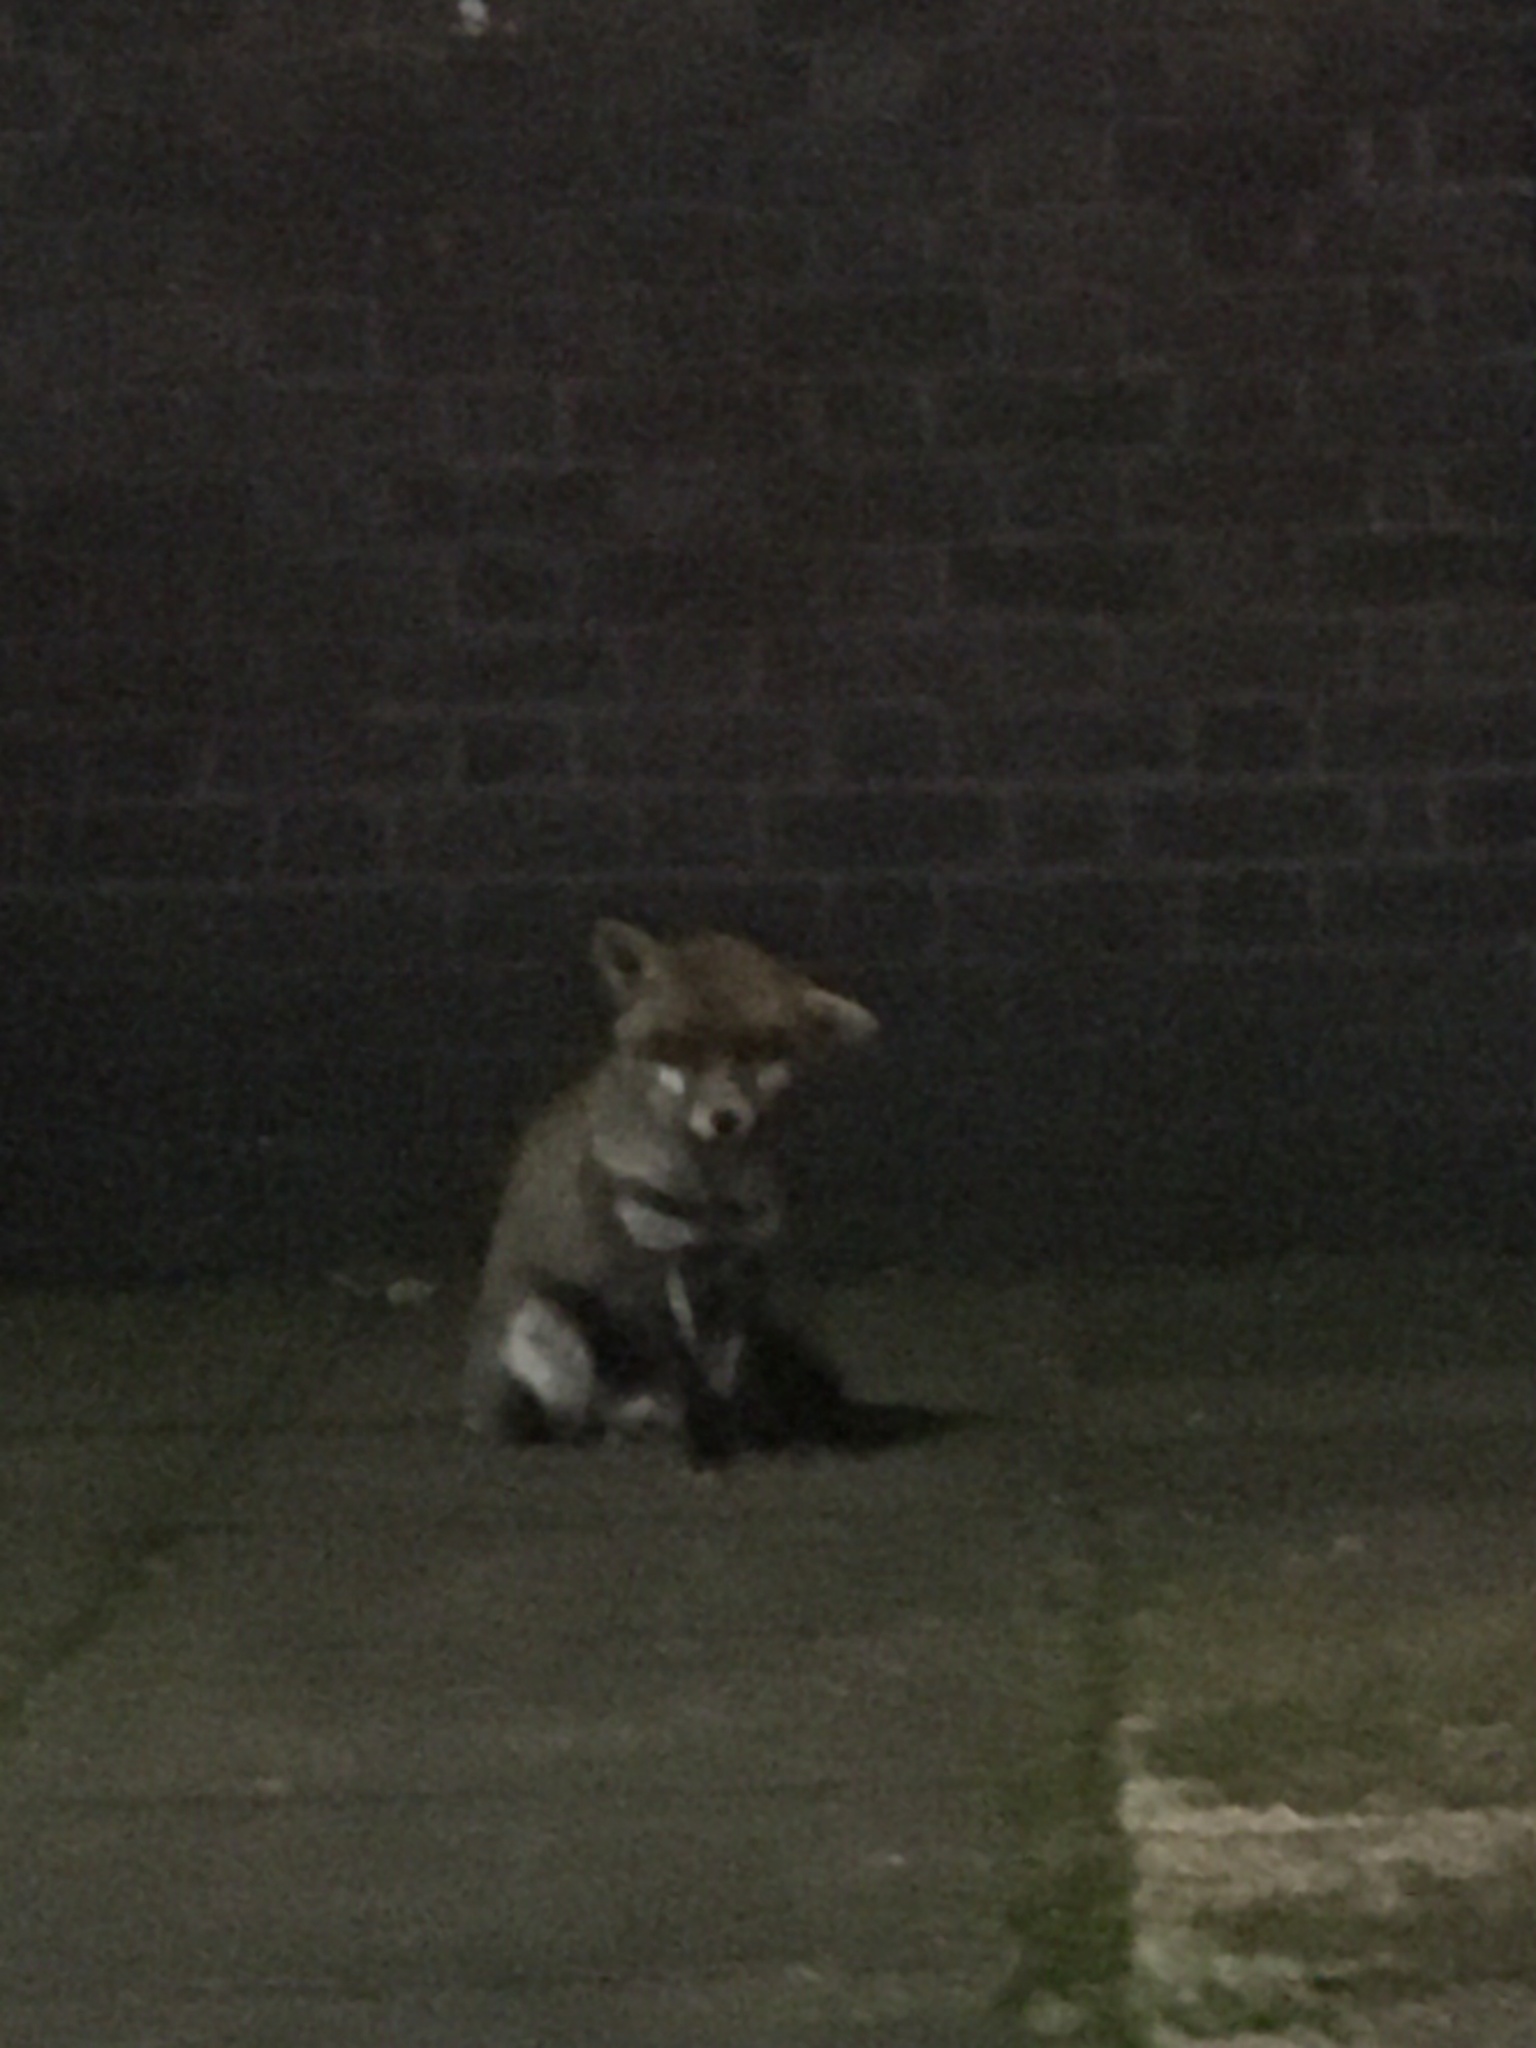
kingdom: Animalia
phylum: Chordata
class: Mammalia
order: Carnivora
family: Canidae
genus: Vulpes
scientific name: Vulpes vulpes
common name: Red fox
